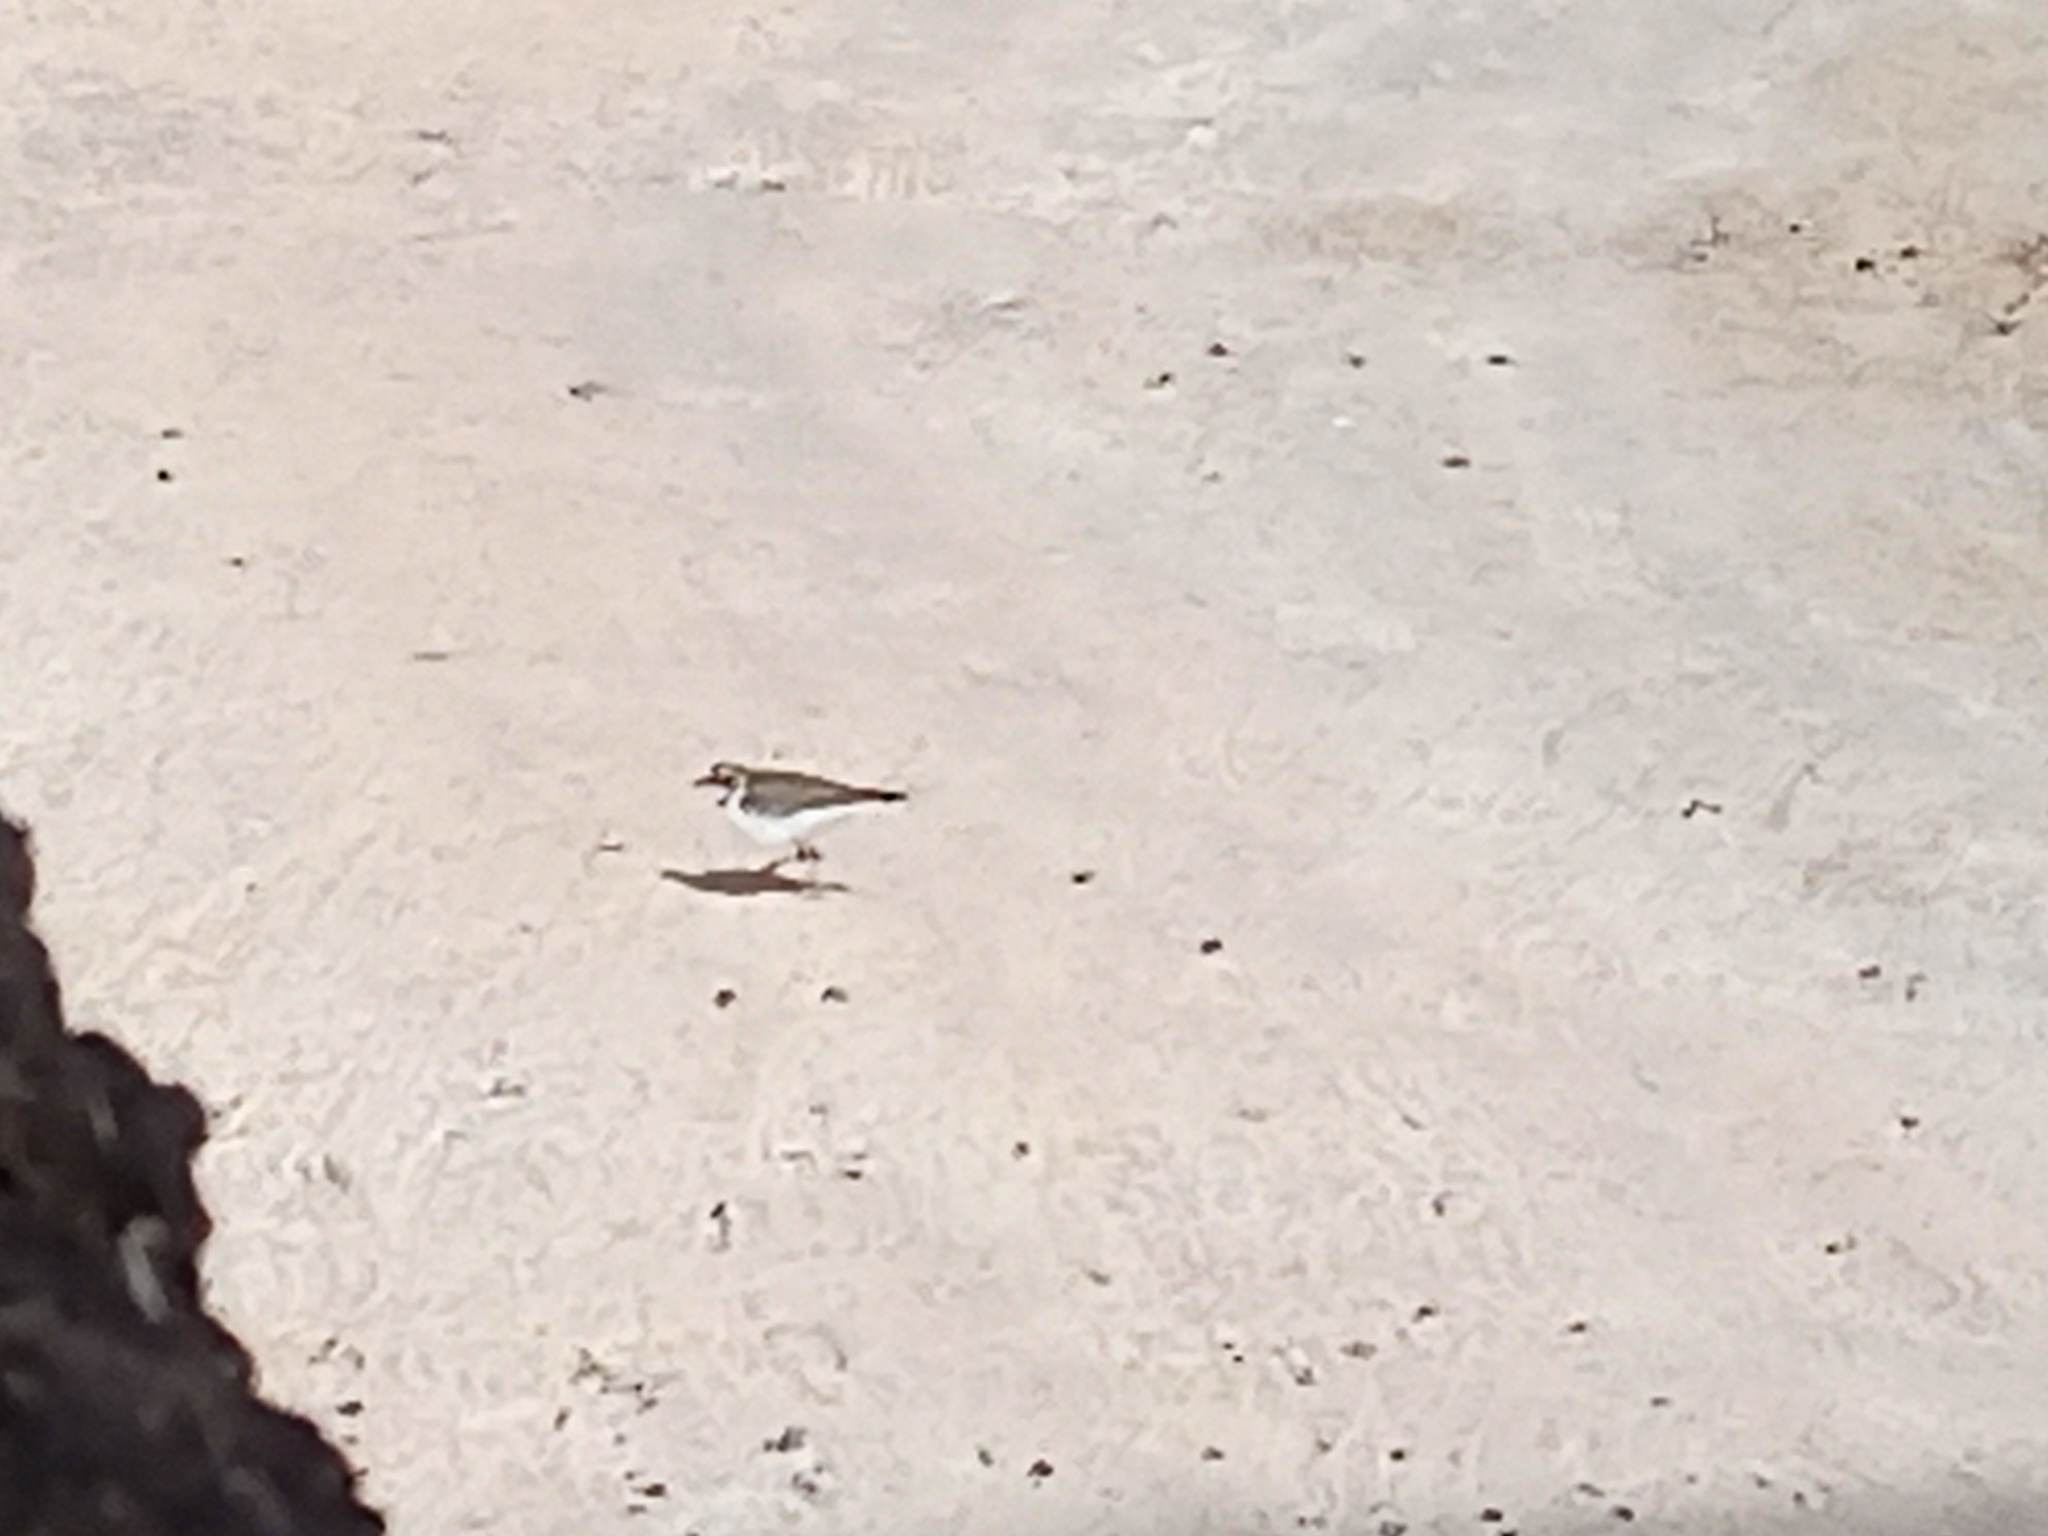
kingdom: Animalia
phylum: Chordata
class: Aves
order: Charadriiformes
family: Charadriidae
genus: Charadrius
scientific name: Charadrius alexandrinus
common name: Kentish plover
